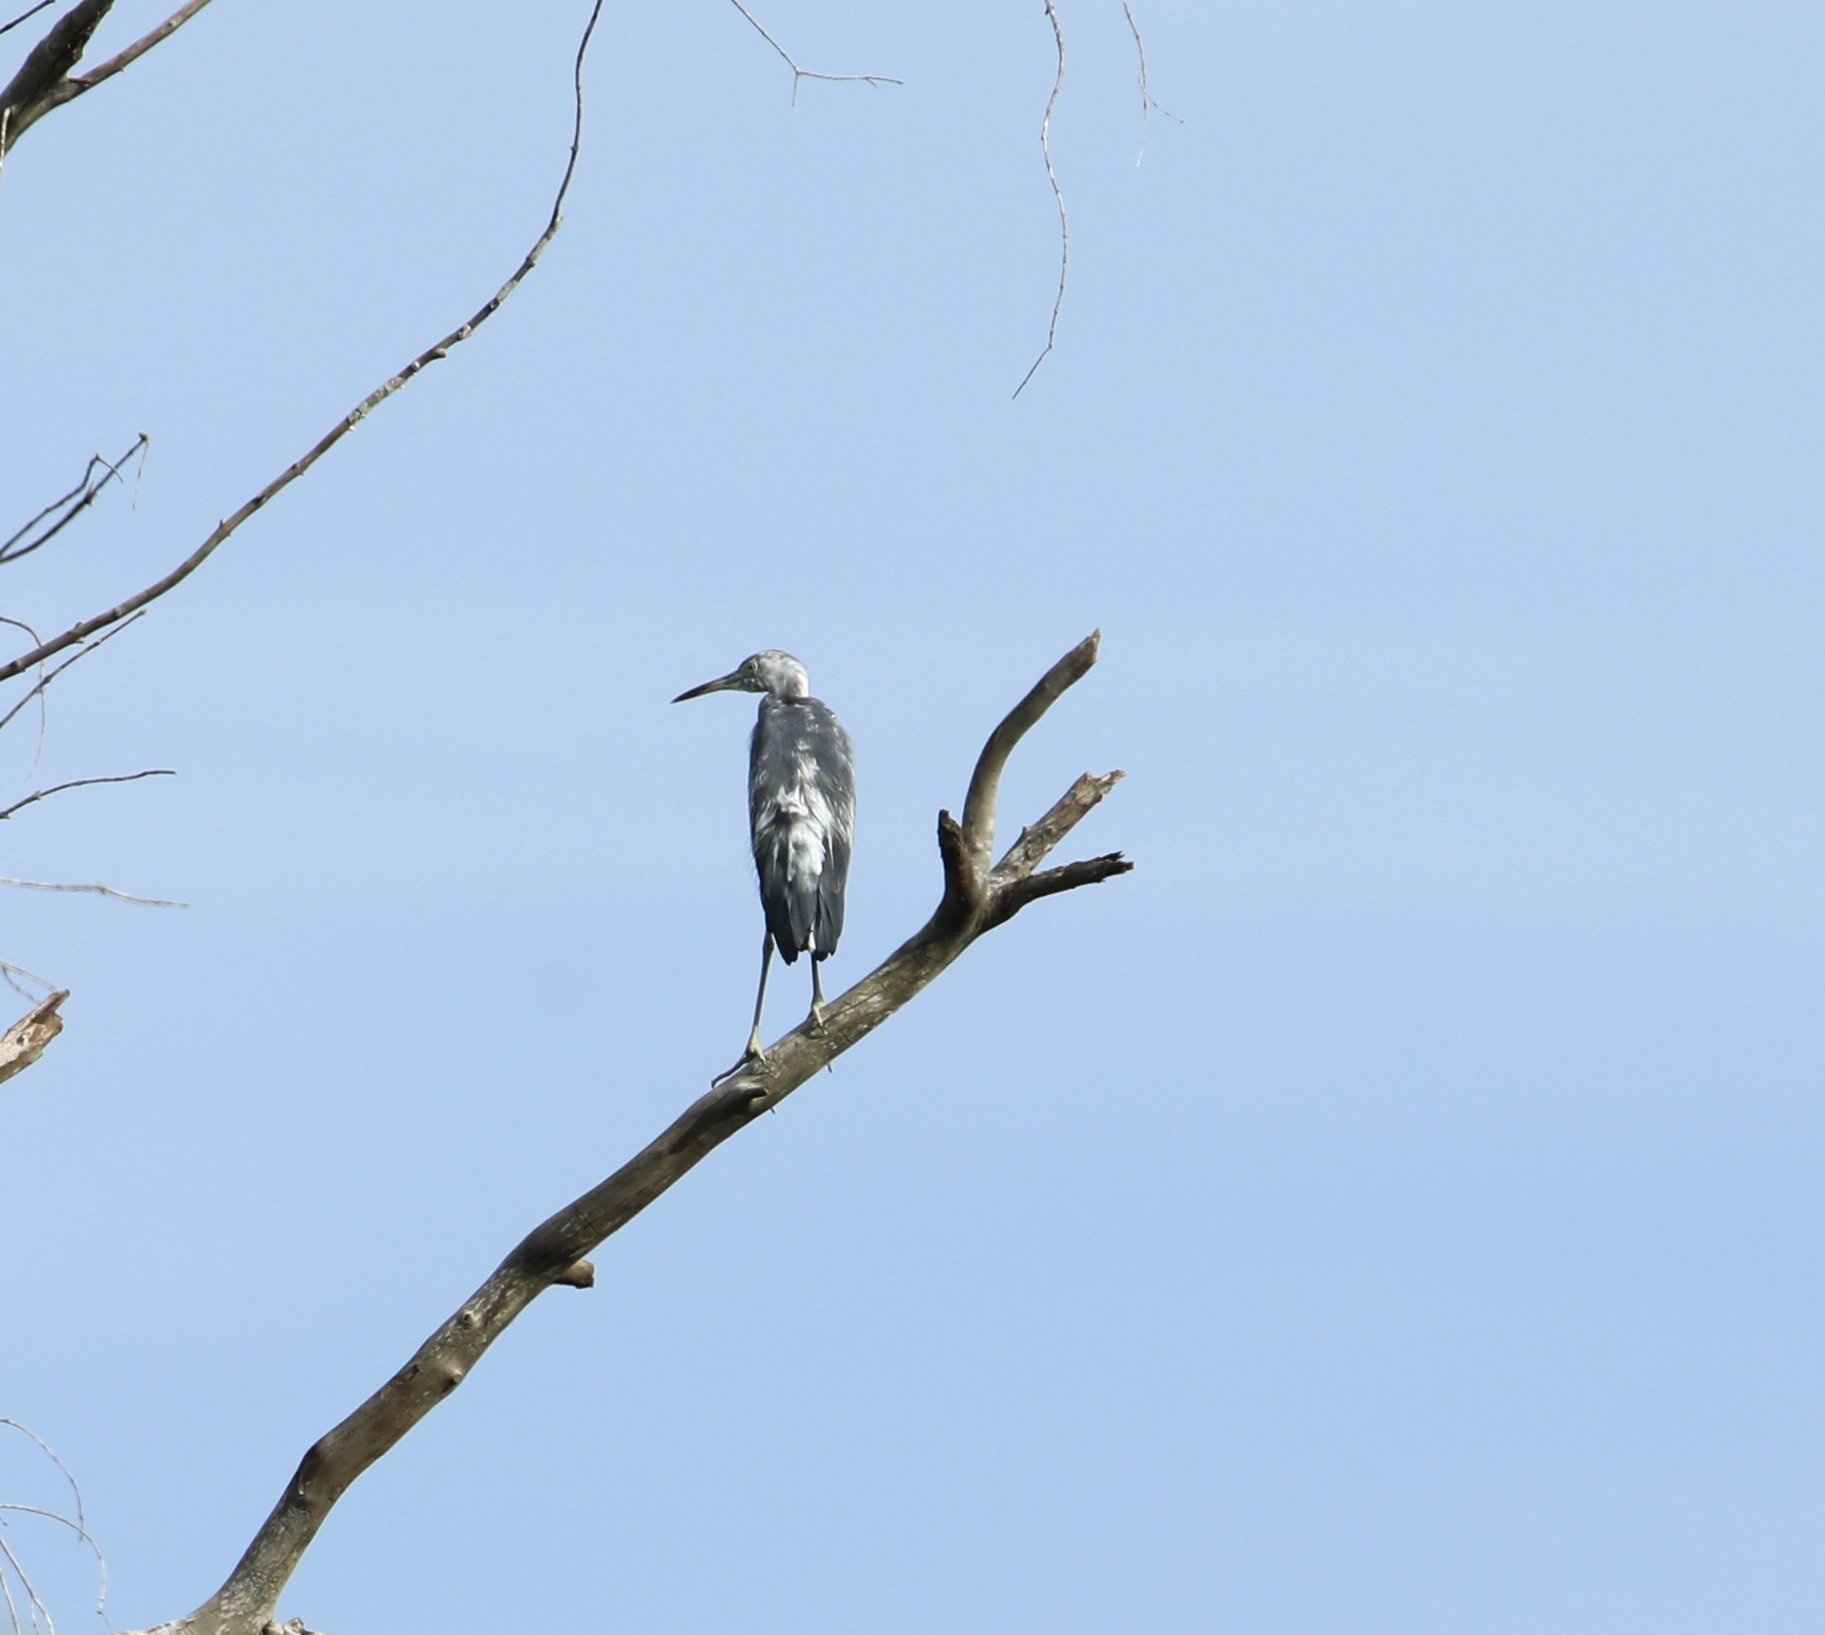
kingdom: Animalia
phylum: Chordata
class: Aves
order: Pelecaniformes
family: Ardeidae
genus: Egretta
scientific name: Egretta caerulea
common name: Little blue heron
